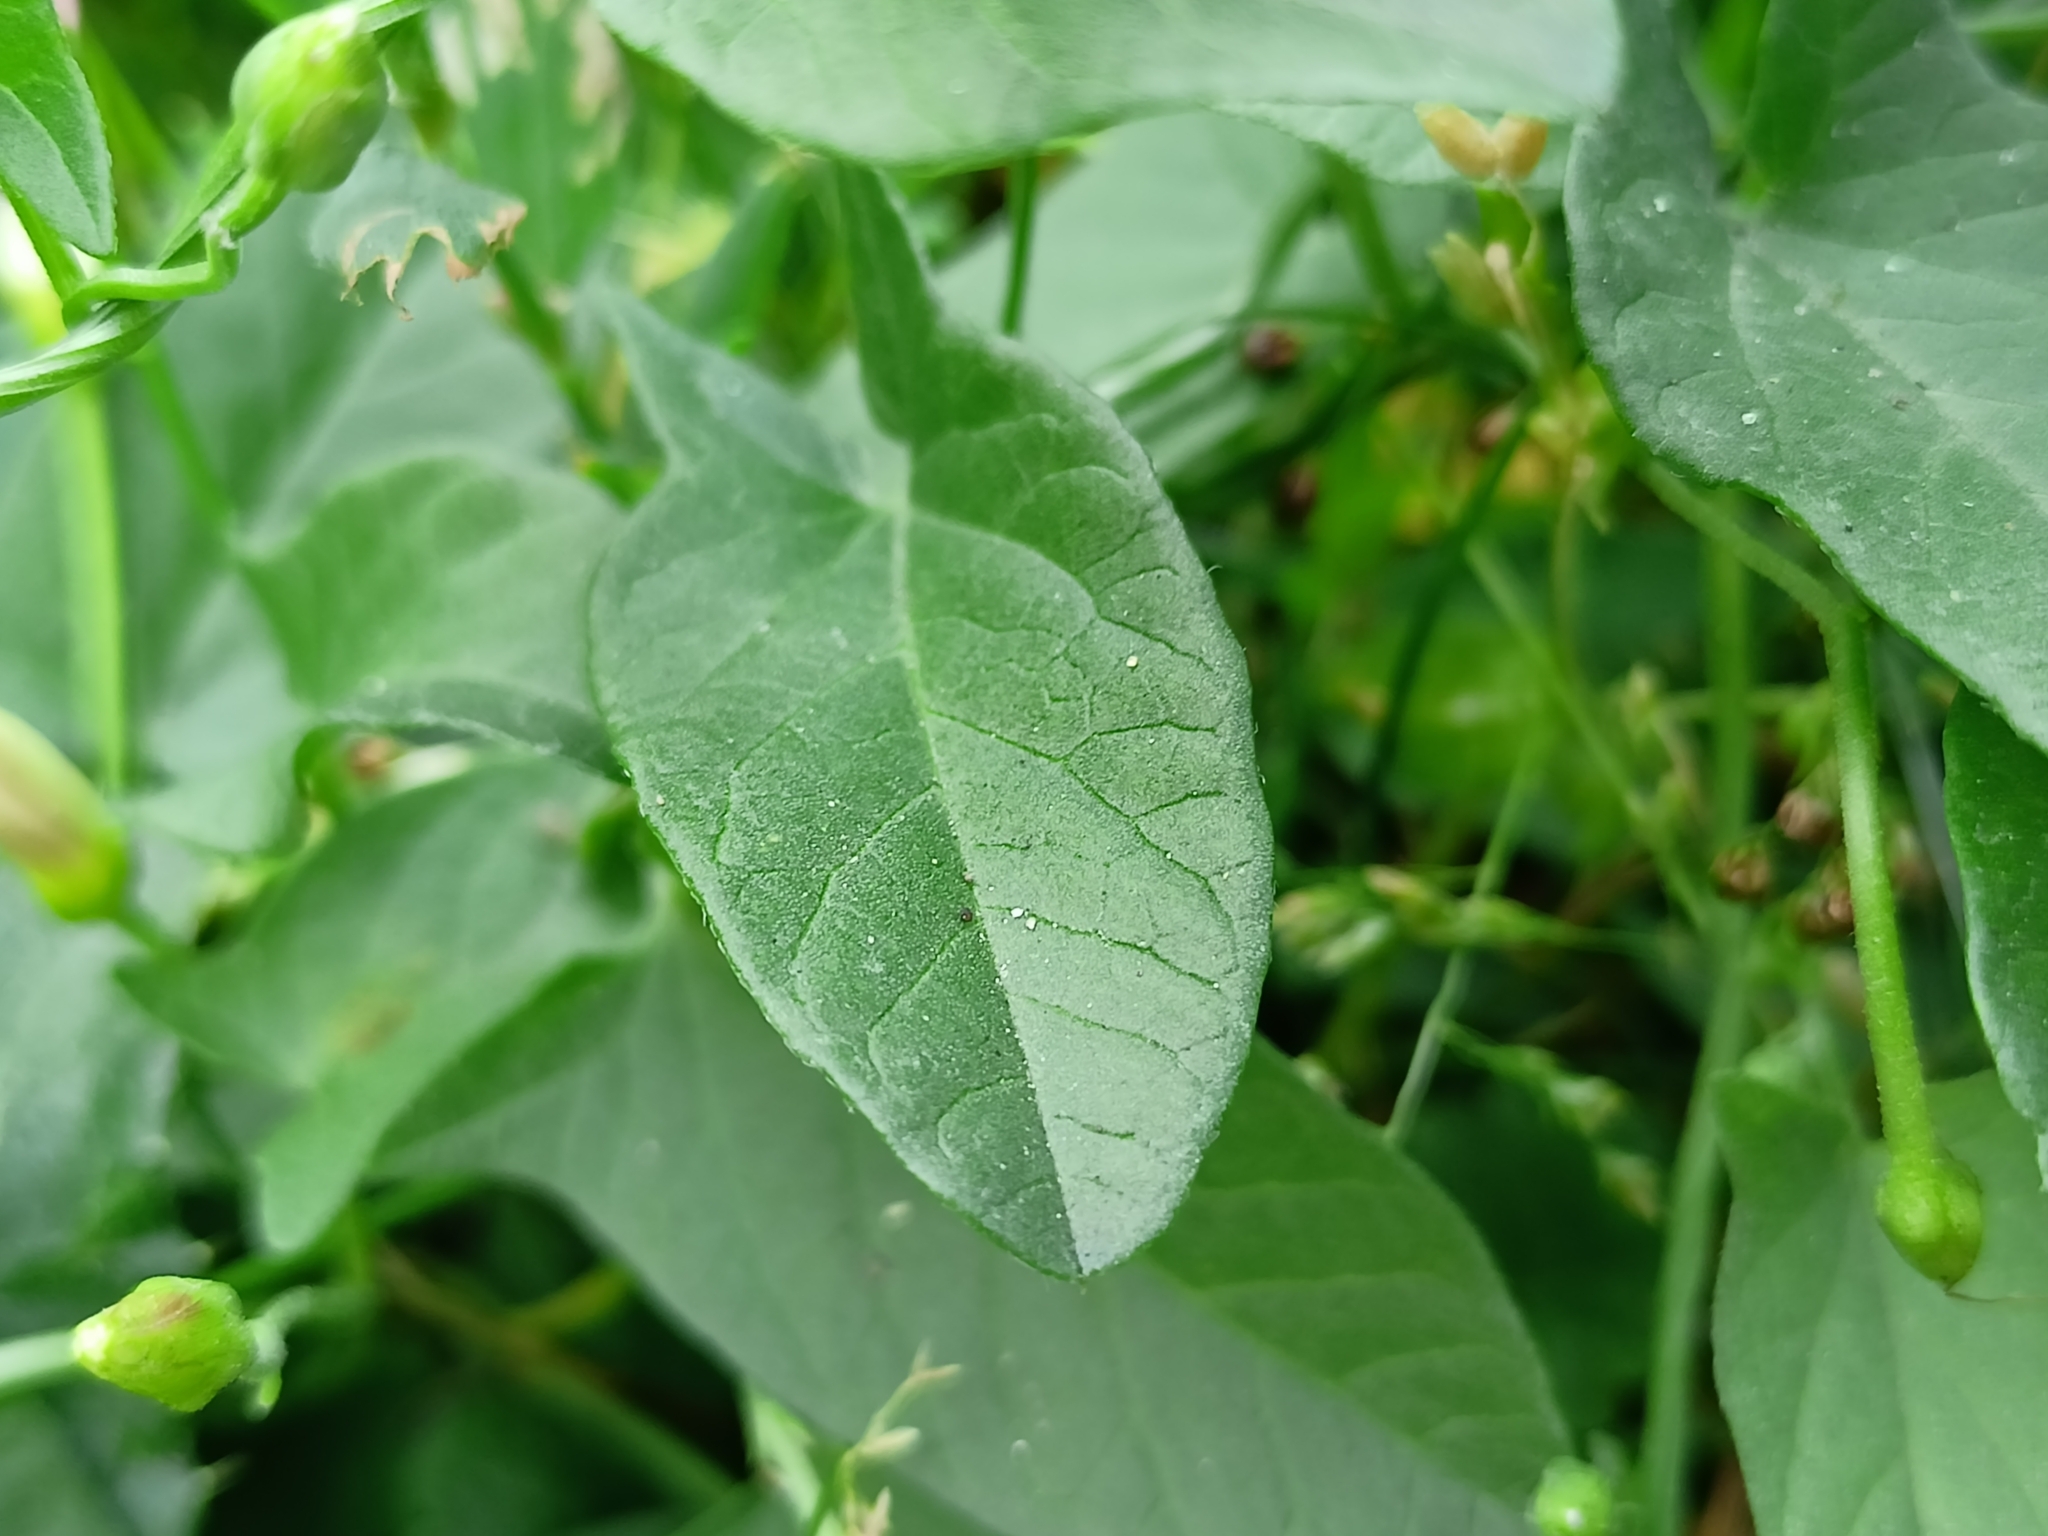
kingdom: Plantae
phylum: Tracheophyta
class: Magnoliopsida
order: Solanales
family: Convolvulaceae
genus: Convolvulus
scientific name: Convolvulus arvensis
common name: Field bindweed
